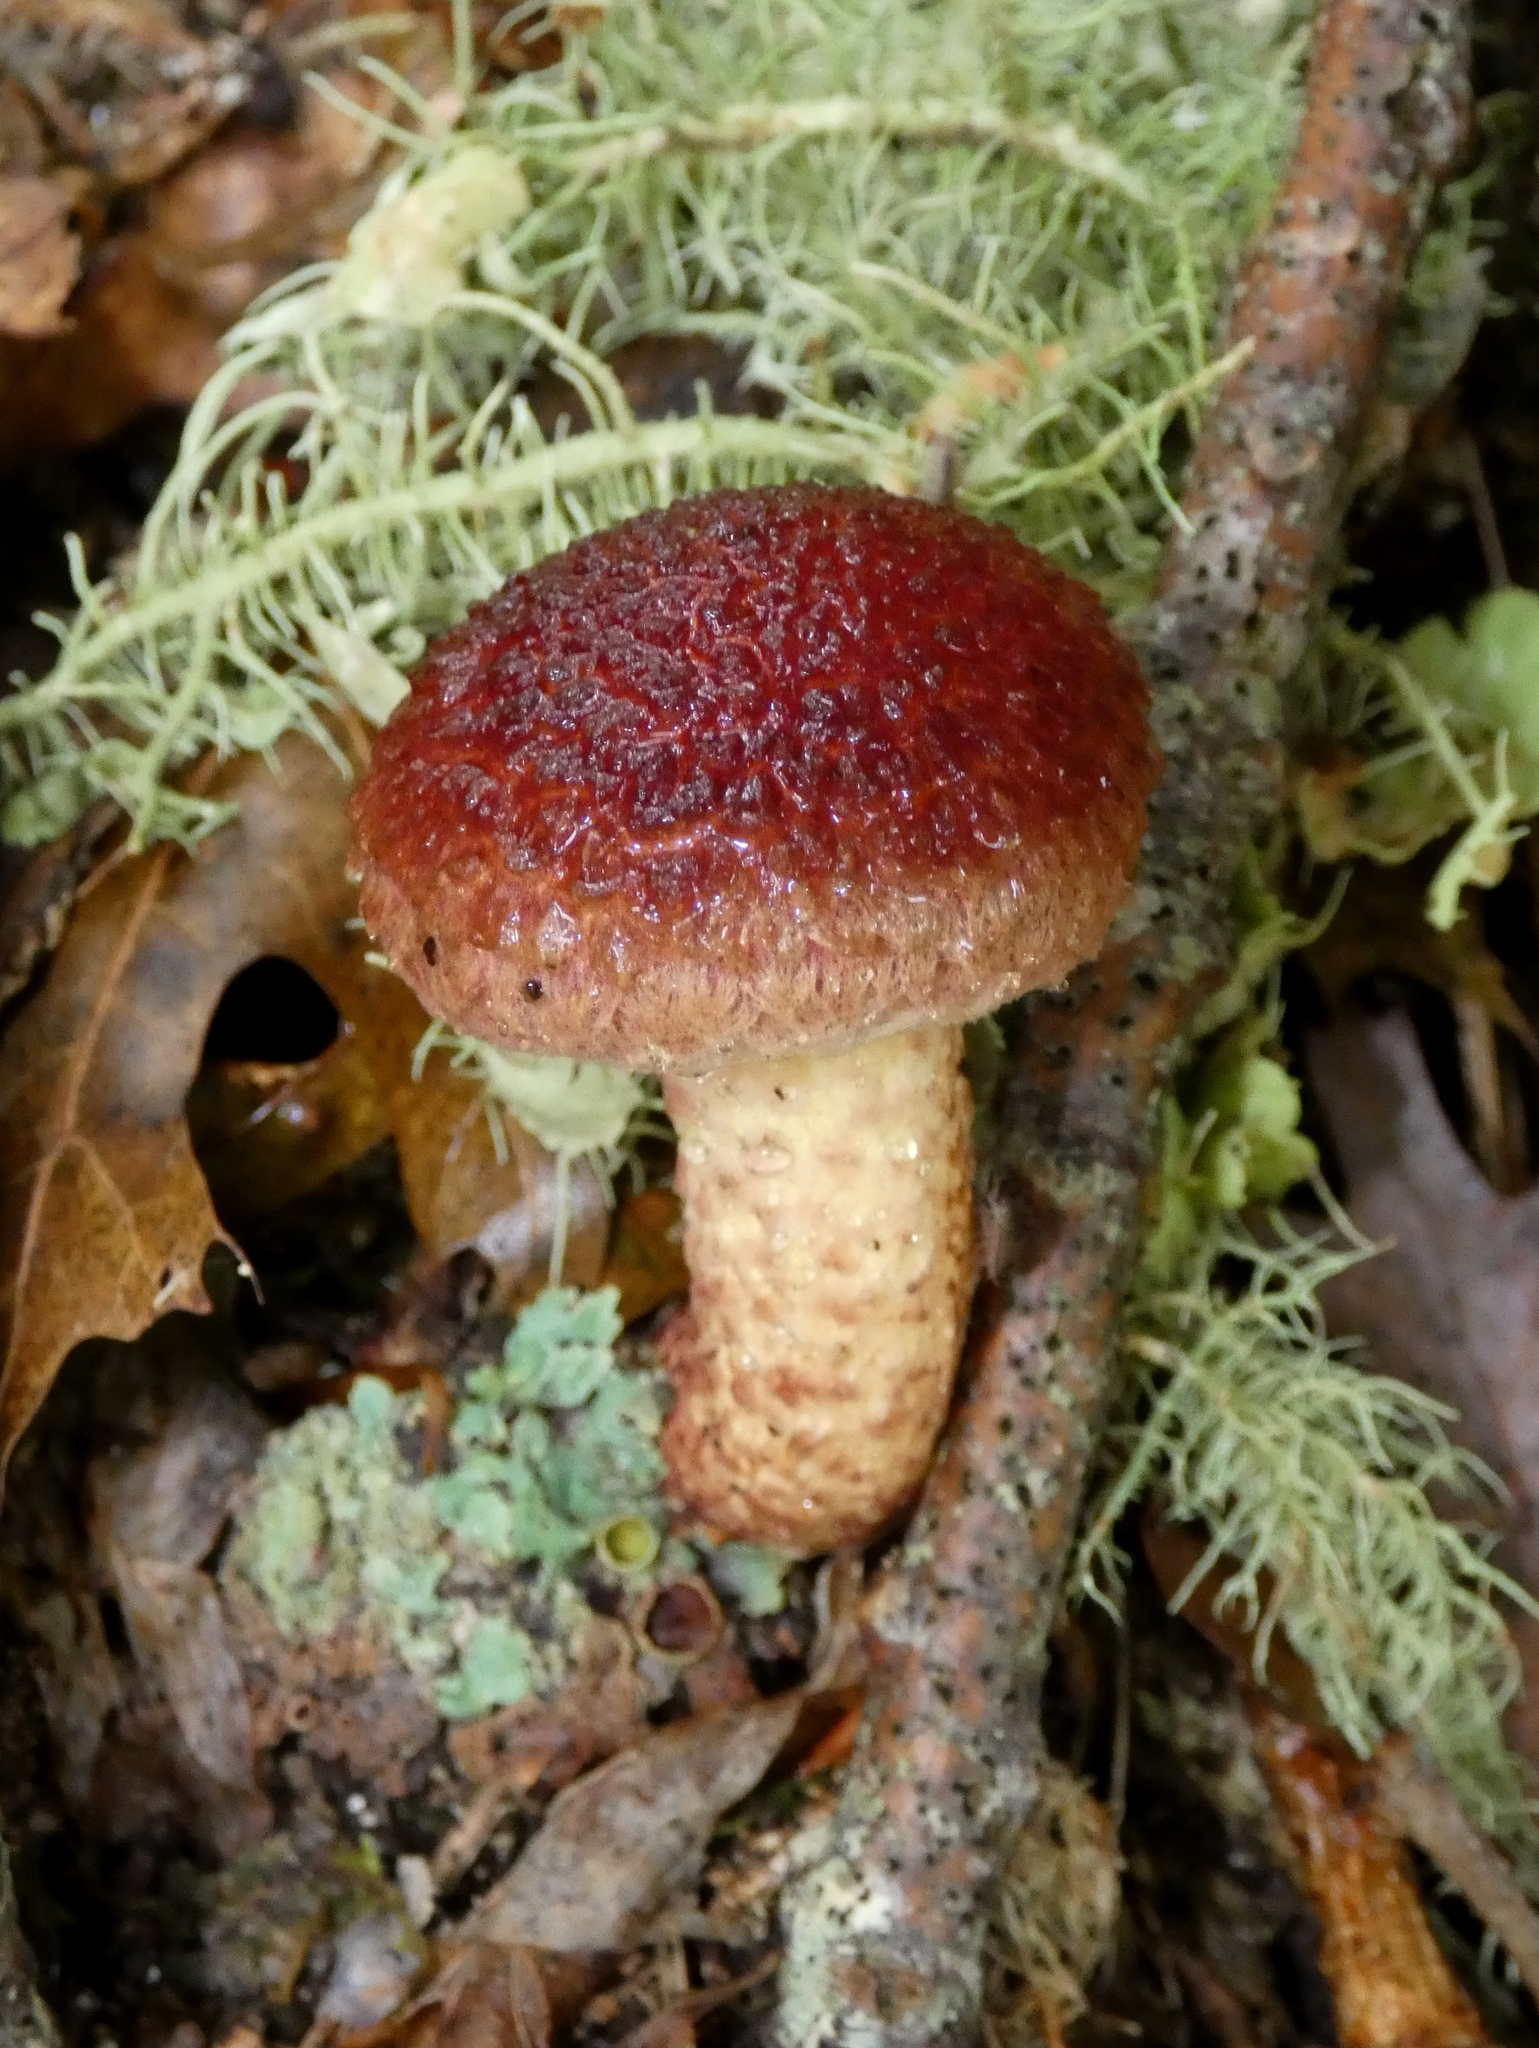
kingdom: Fungi
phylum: Basidiomycota
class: Agaricomycetes
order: Boletales
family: Suillaceae
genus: Suillus
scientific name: Suillus spraguei
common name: Painted suillus
